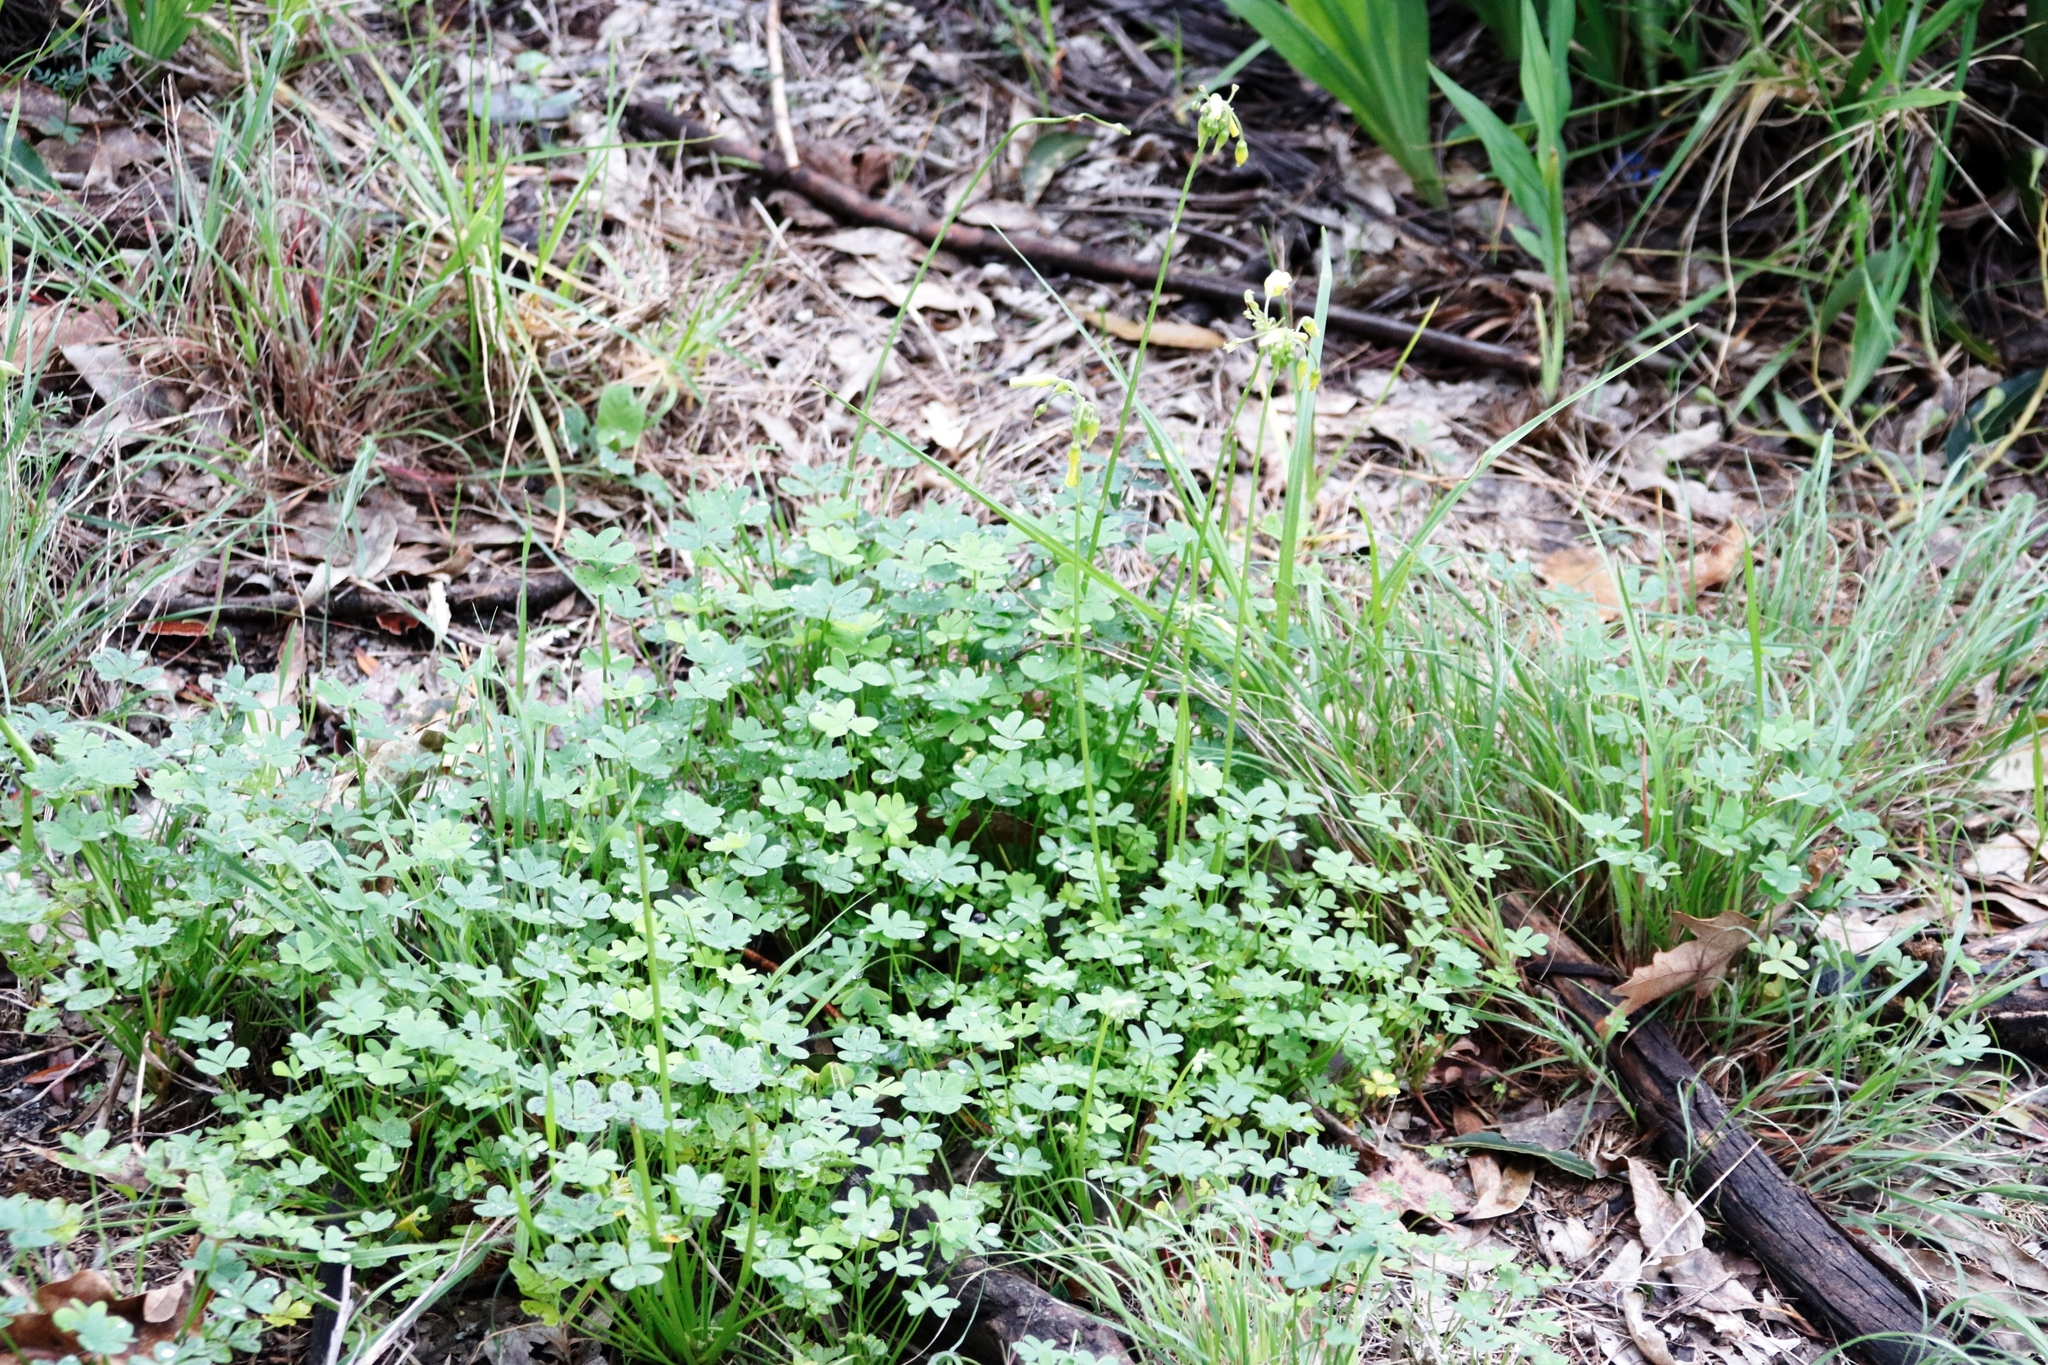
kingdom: Plantae
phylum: Tracheophyta
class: Magnoliopsida
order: Oxalidales
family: Oxalidaceae
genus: Oxalis
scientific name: Oxalis pes-caprae
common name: Bermuda-buttercup
